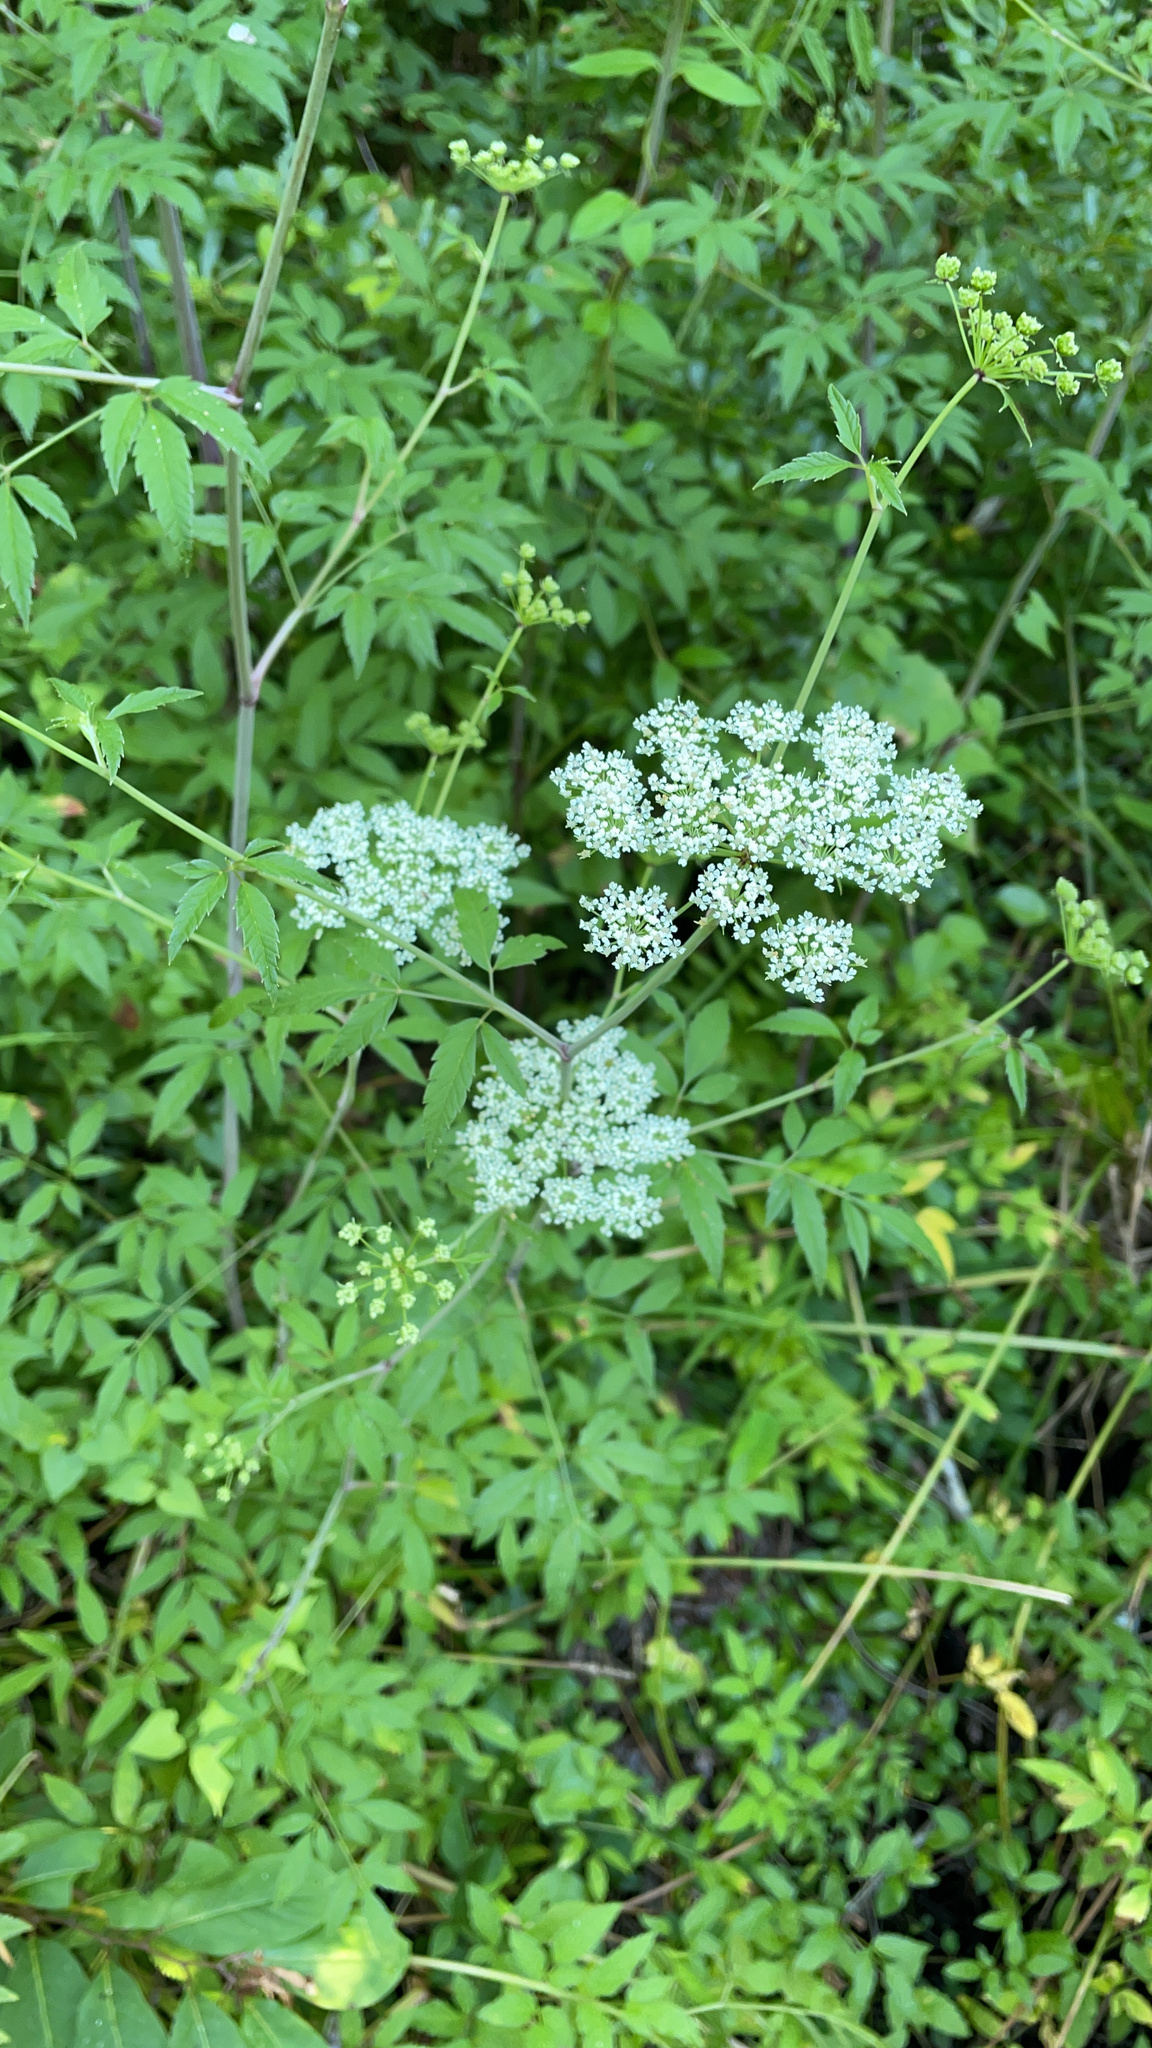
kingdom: Plantae
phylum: Tracheophyta
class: Magnoliopsida
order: Apiales
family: Apiaceae
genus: Cicuta
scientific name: Cicuta maculata
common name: Spotted cowbane
